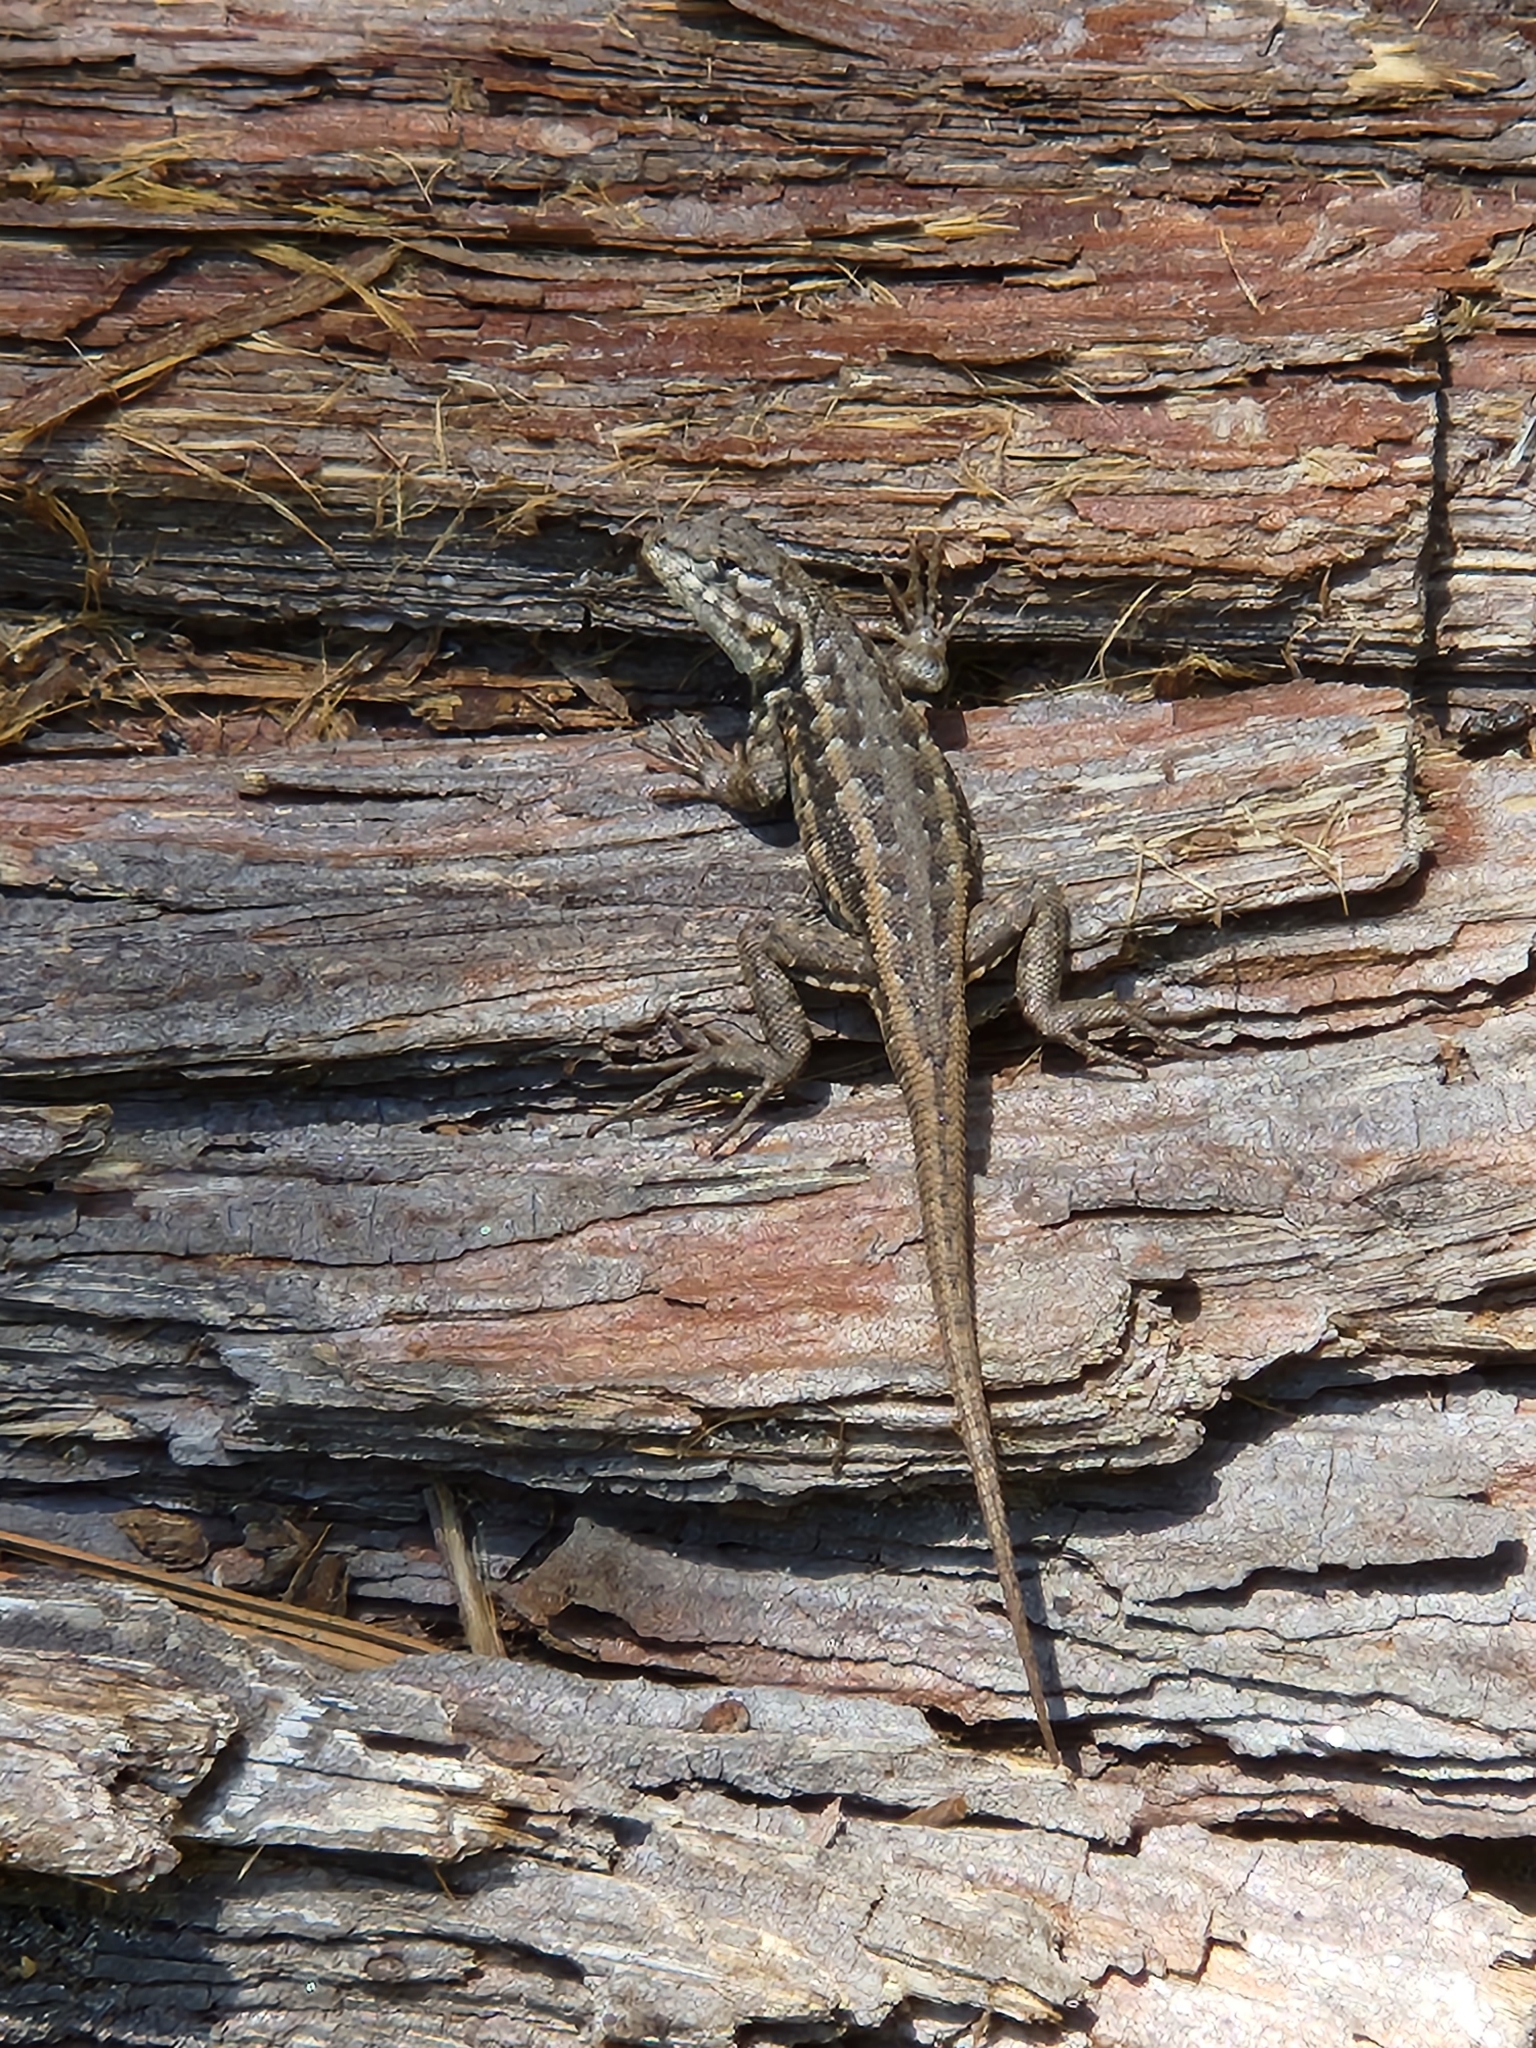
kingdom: Animalia
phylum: Chordata
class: Squamata
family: Phrynosomatidae
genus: Sceloporus
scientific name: Sceloporus graciosus
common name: Sagebrush lizard
